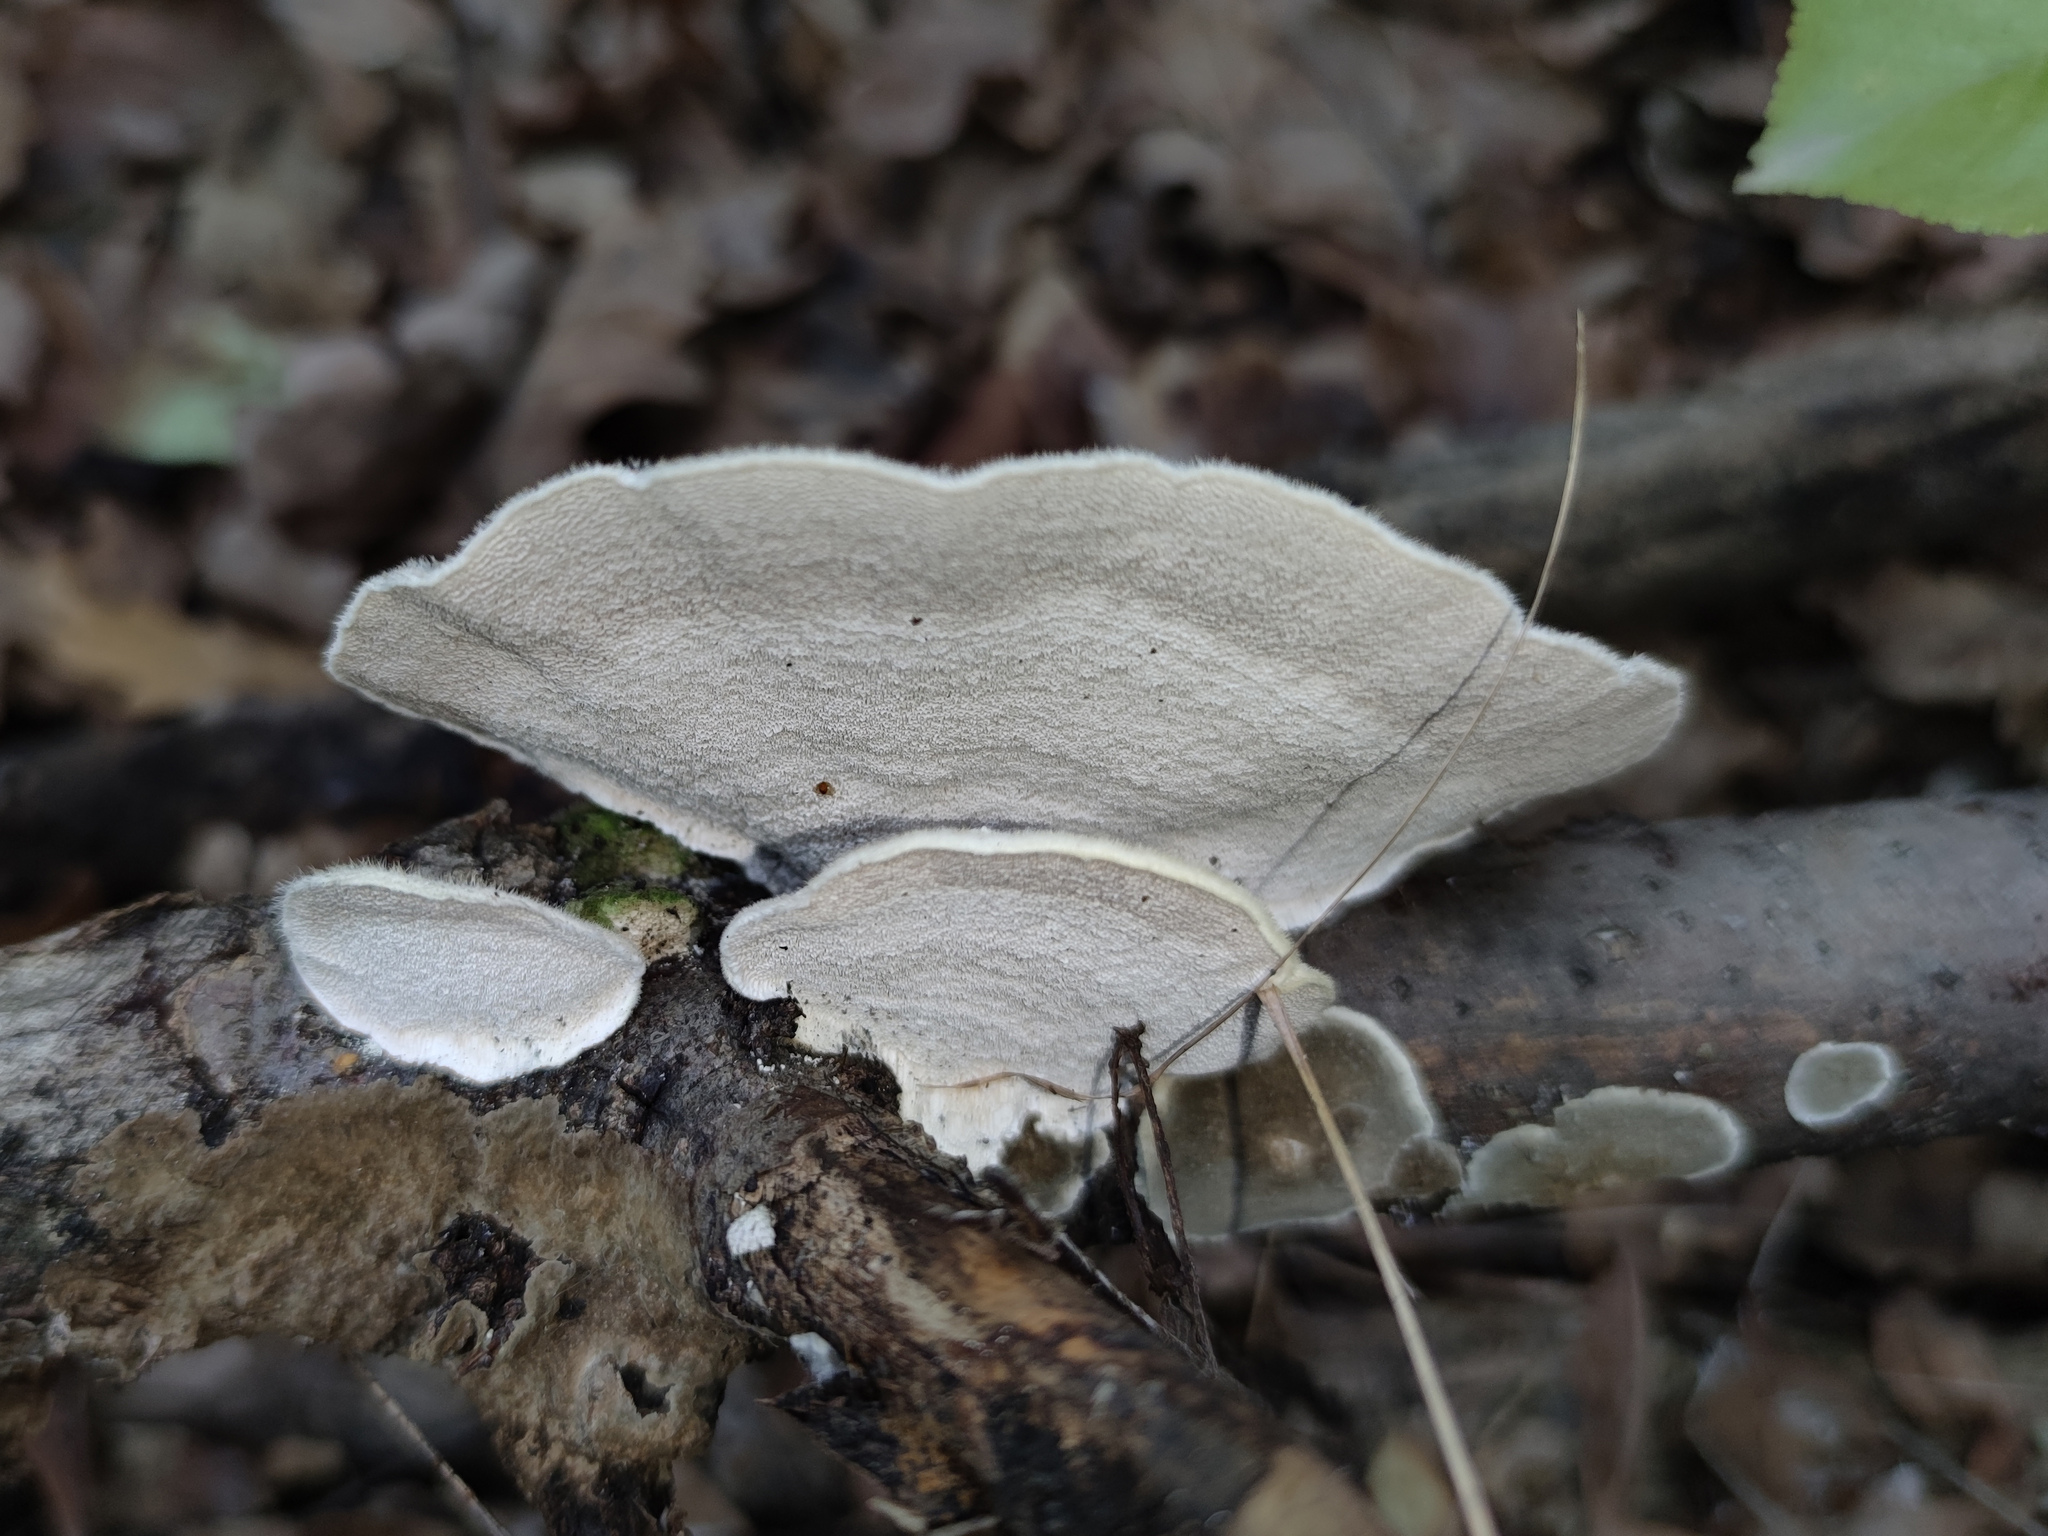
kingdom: Fungi
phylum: Basidiomycota
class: Agaricomycetes
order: Polyporales
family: Polyporaceae
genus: Trametes
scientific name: Trametes hirsuta
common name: Hairy bracket
